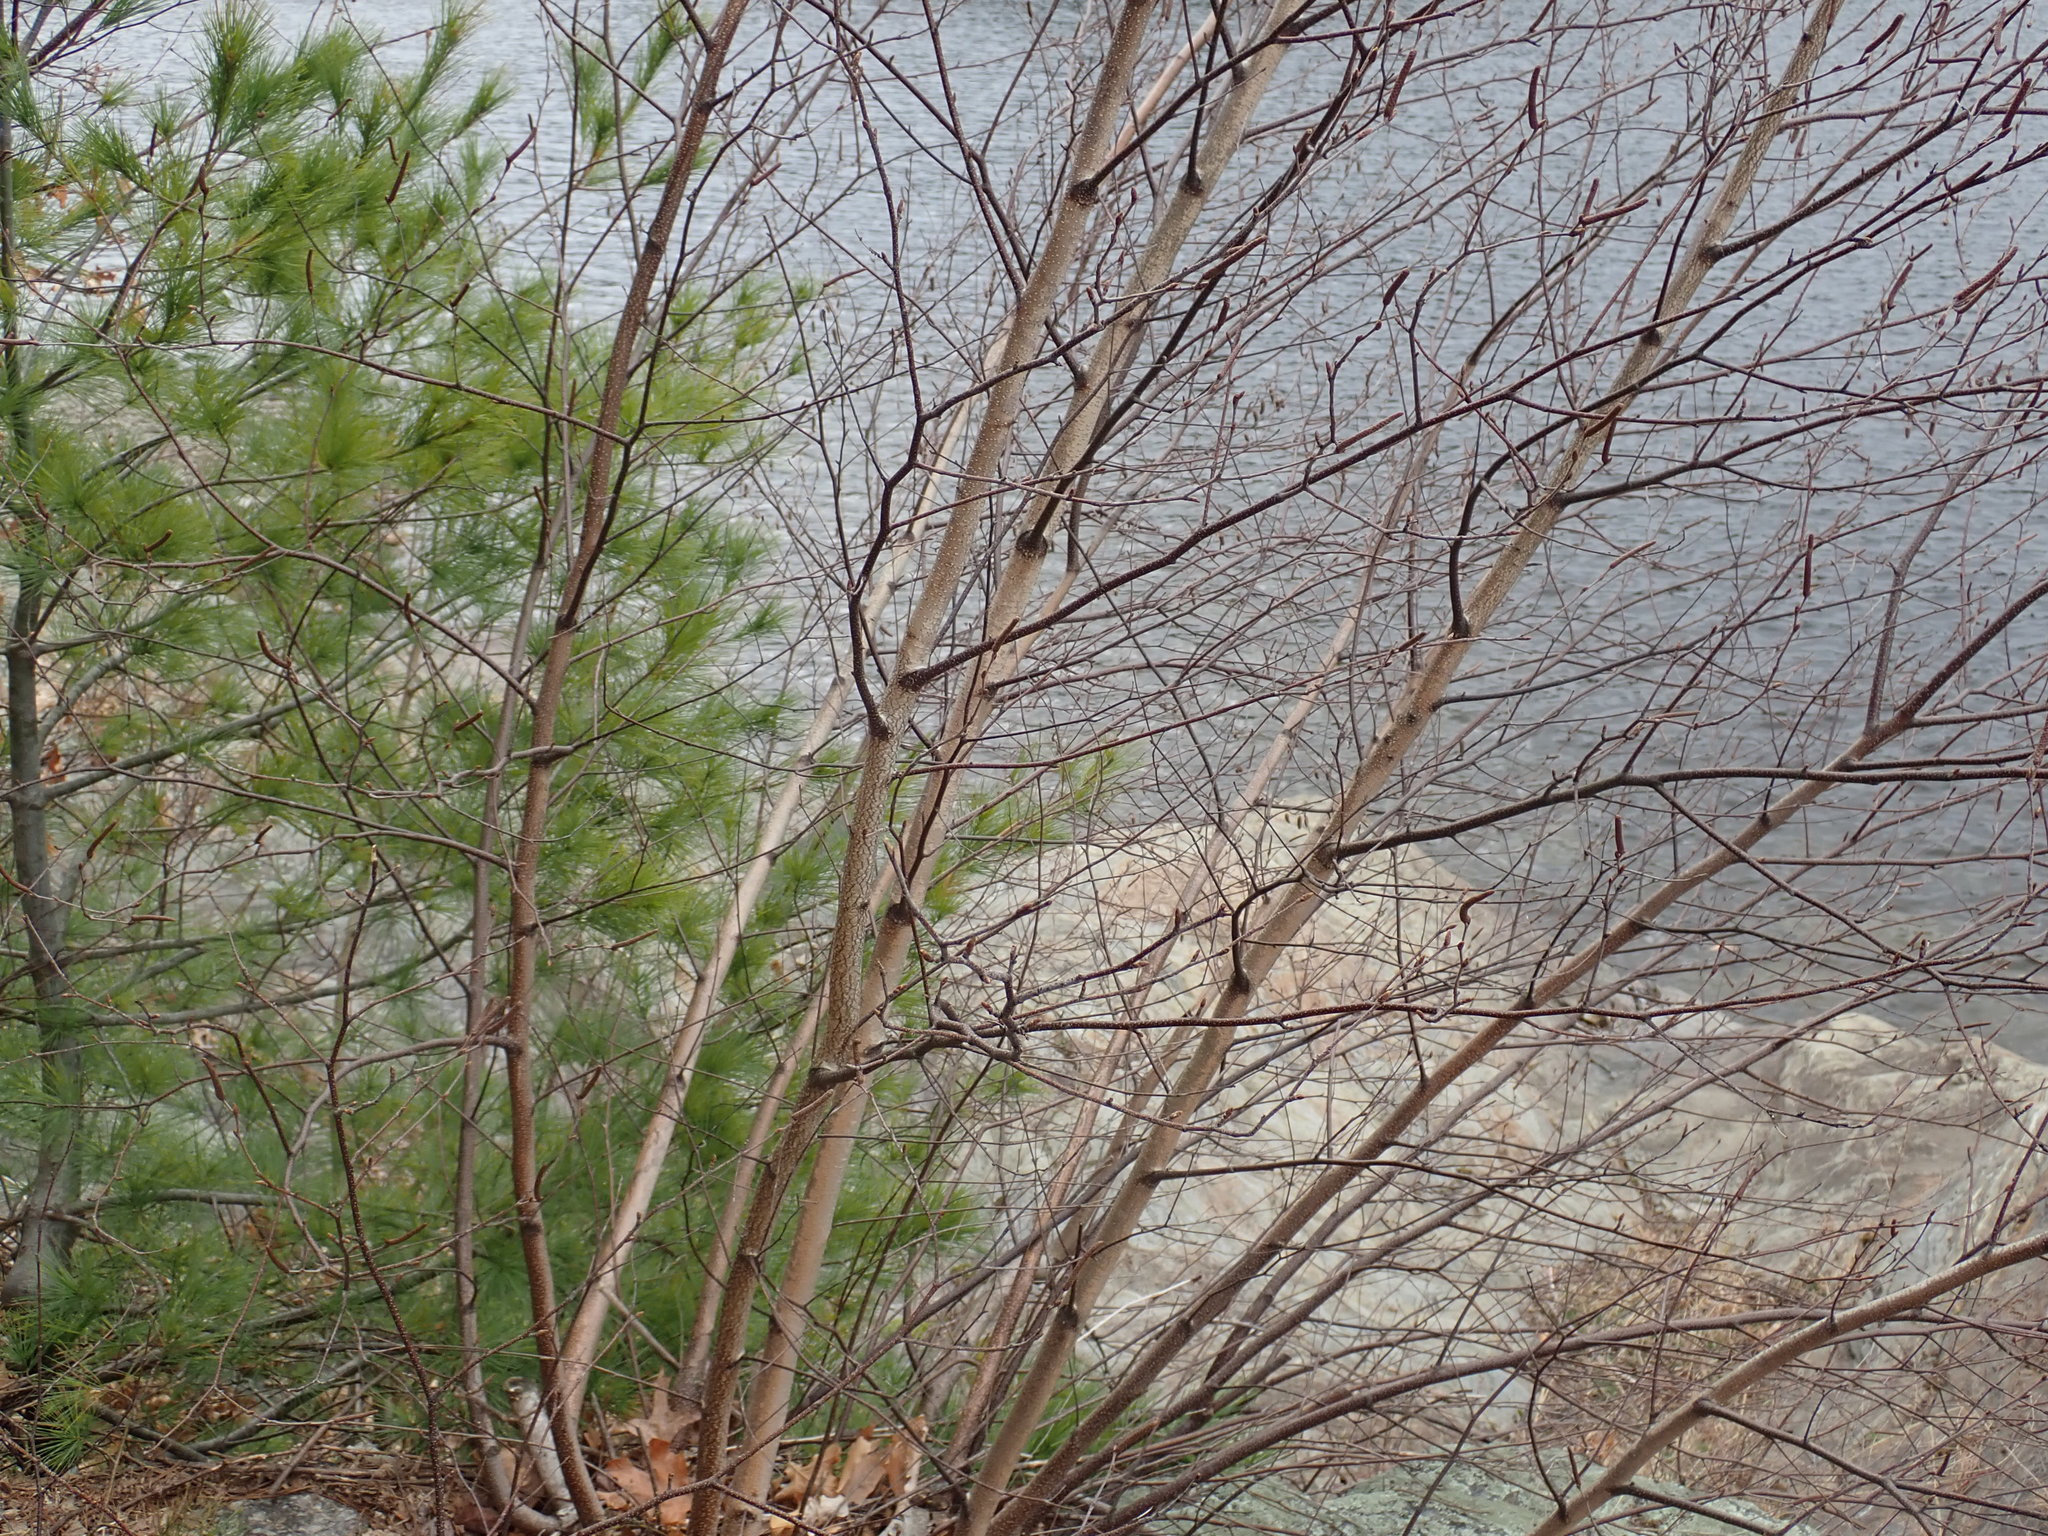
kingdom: Plantae
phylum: Tracheophyta
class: Magnoliopsida
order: Fagales
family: Betulaceae
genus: Betula
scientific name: Betula populifolia
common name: Fire birch
